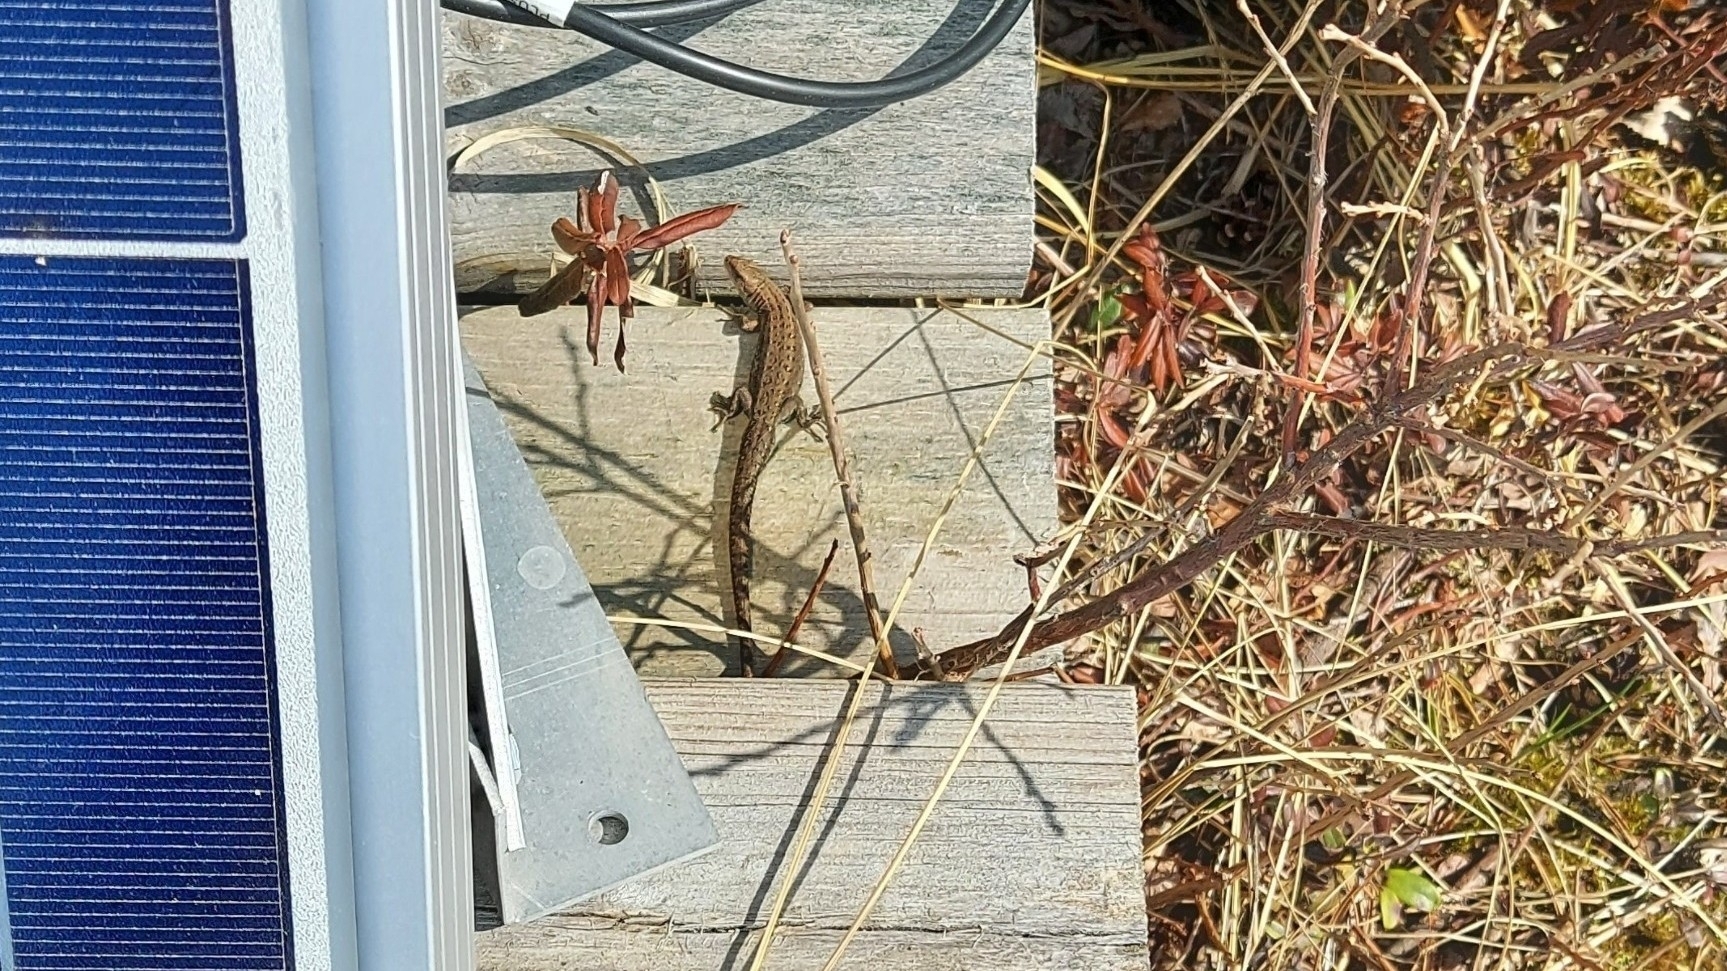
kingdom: Animalia
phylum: Chordata
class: Squamata
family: Lacertidae
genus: Zootoca
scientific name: Zootoca vivipara
